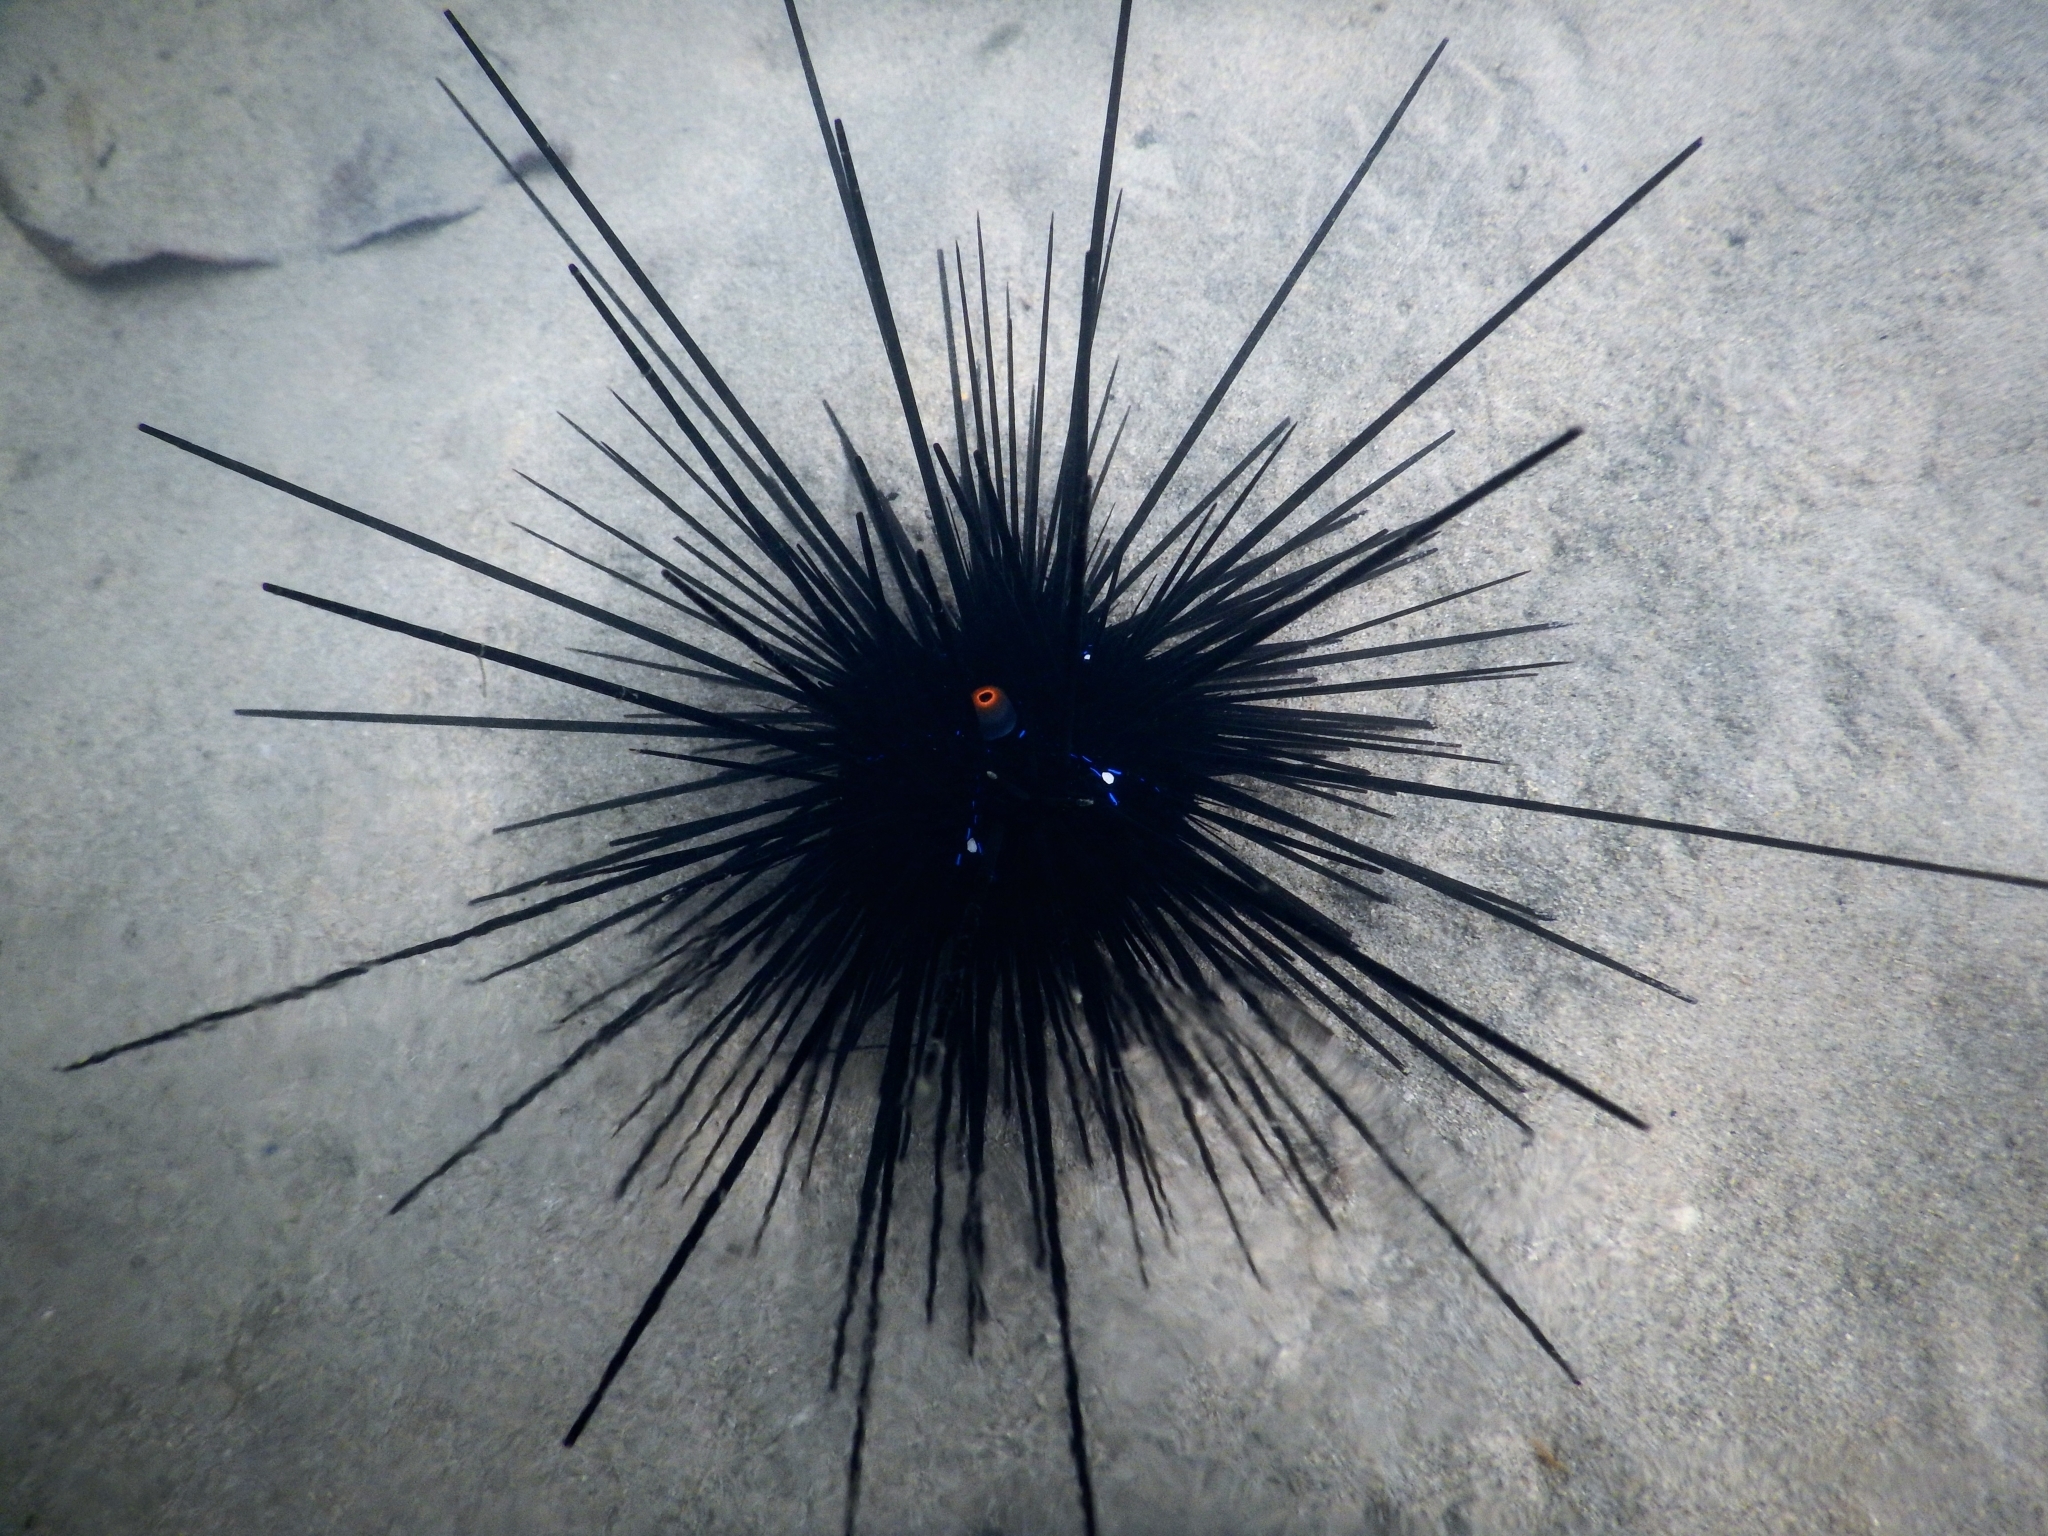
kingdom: Animalia
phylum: Echinodermata
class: Echinoidea
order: Diadematoida
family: Diadematidae
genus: Diadema
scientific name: Diadema setosum
